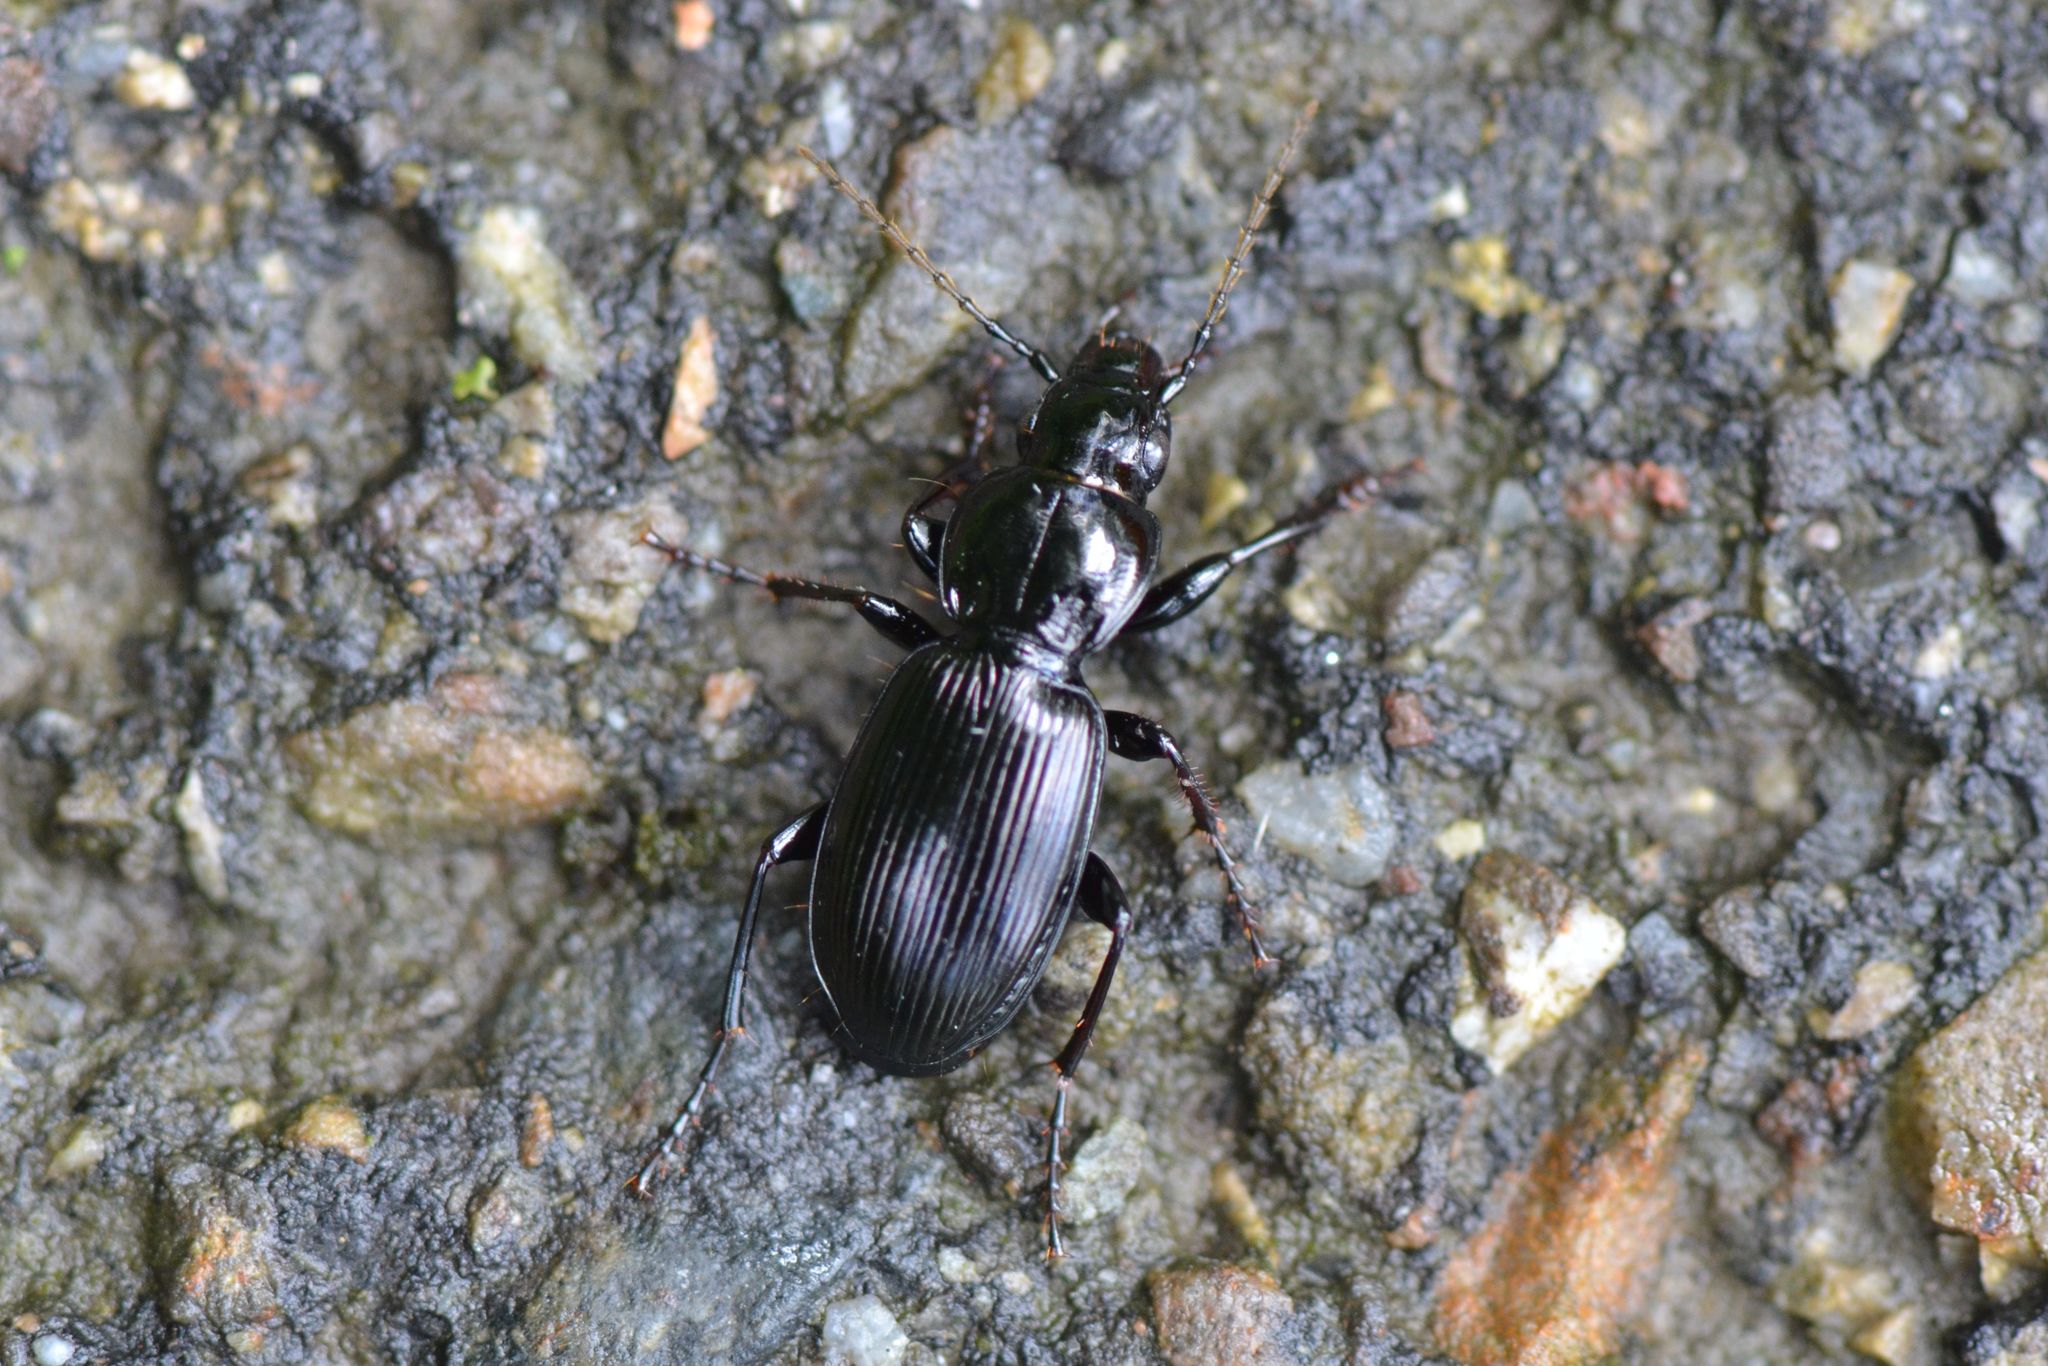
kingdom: Animalia
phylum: Arthropoda
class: Insecta
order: Coleoptera
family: Carabidae
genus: Pterostichus
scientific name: Pterostichus madidus
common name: Black clock
